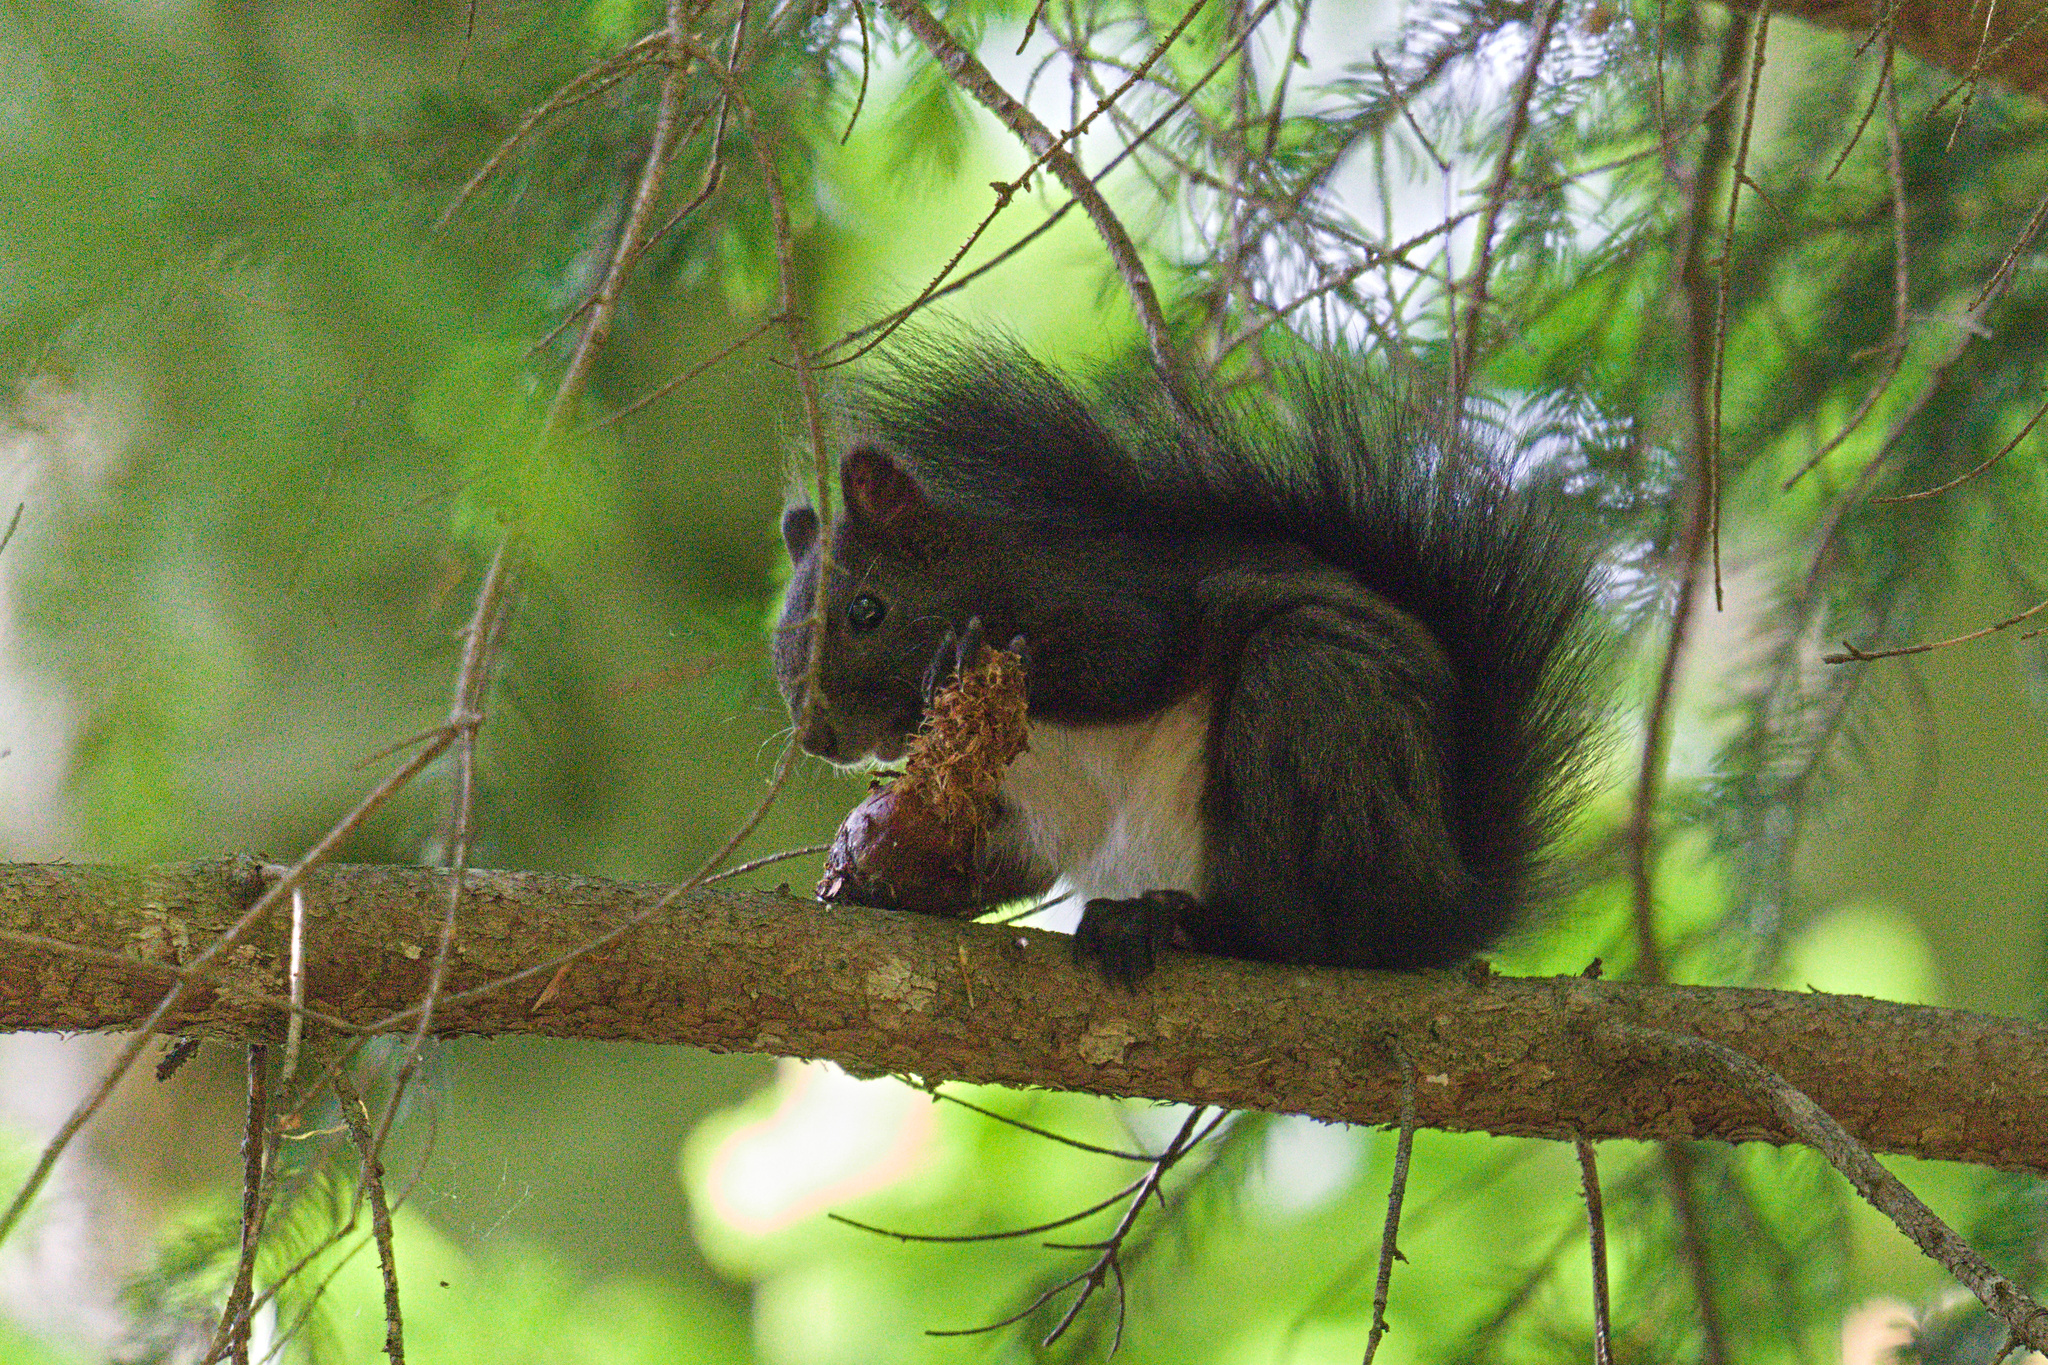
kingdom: Animalia
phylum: Chordata
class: Mammalia
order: Rodentia
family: Sciuridae
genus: Sciurus
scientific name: Sciurus vulgaris
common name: Eurasian red squirrel
